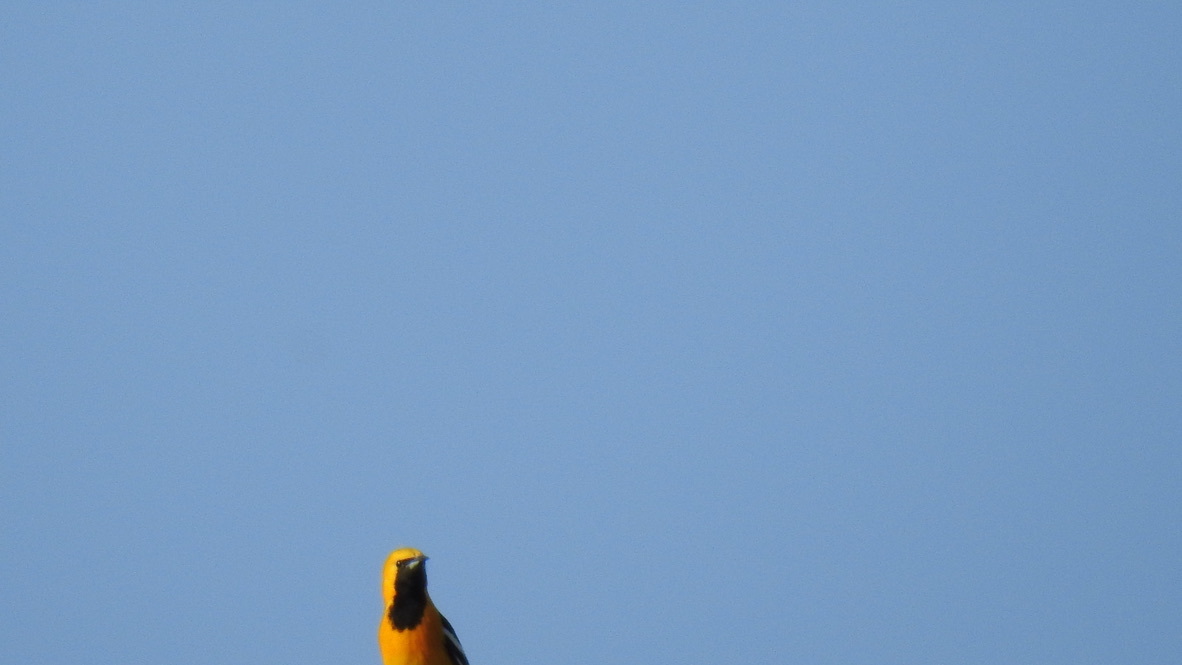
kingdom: Animalia
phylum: Chordata
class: Aves
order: Passeriformes
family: Icteridae
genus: Icterus
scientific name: Icterus cucullatus
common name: Hooded oriole
